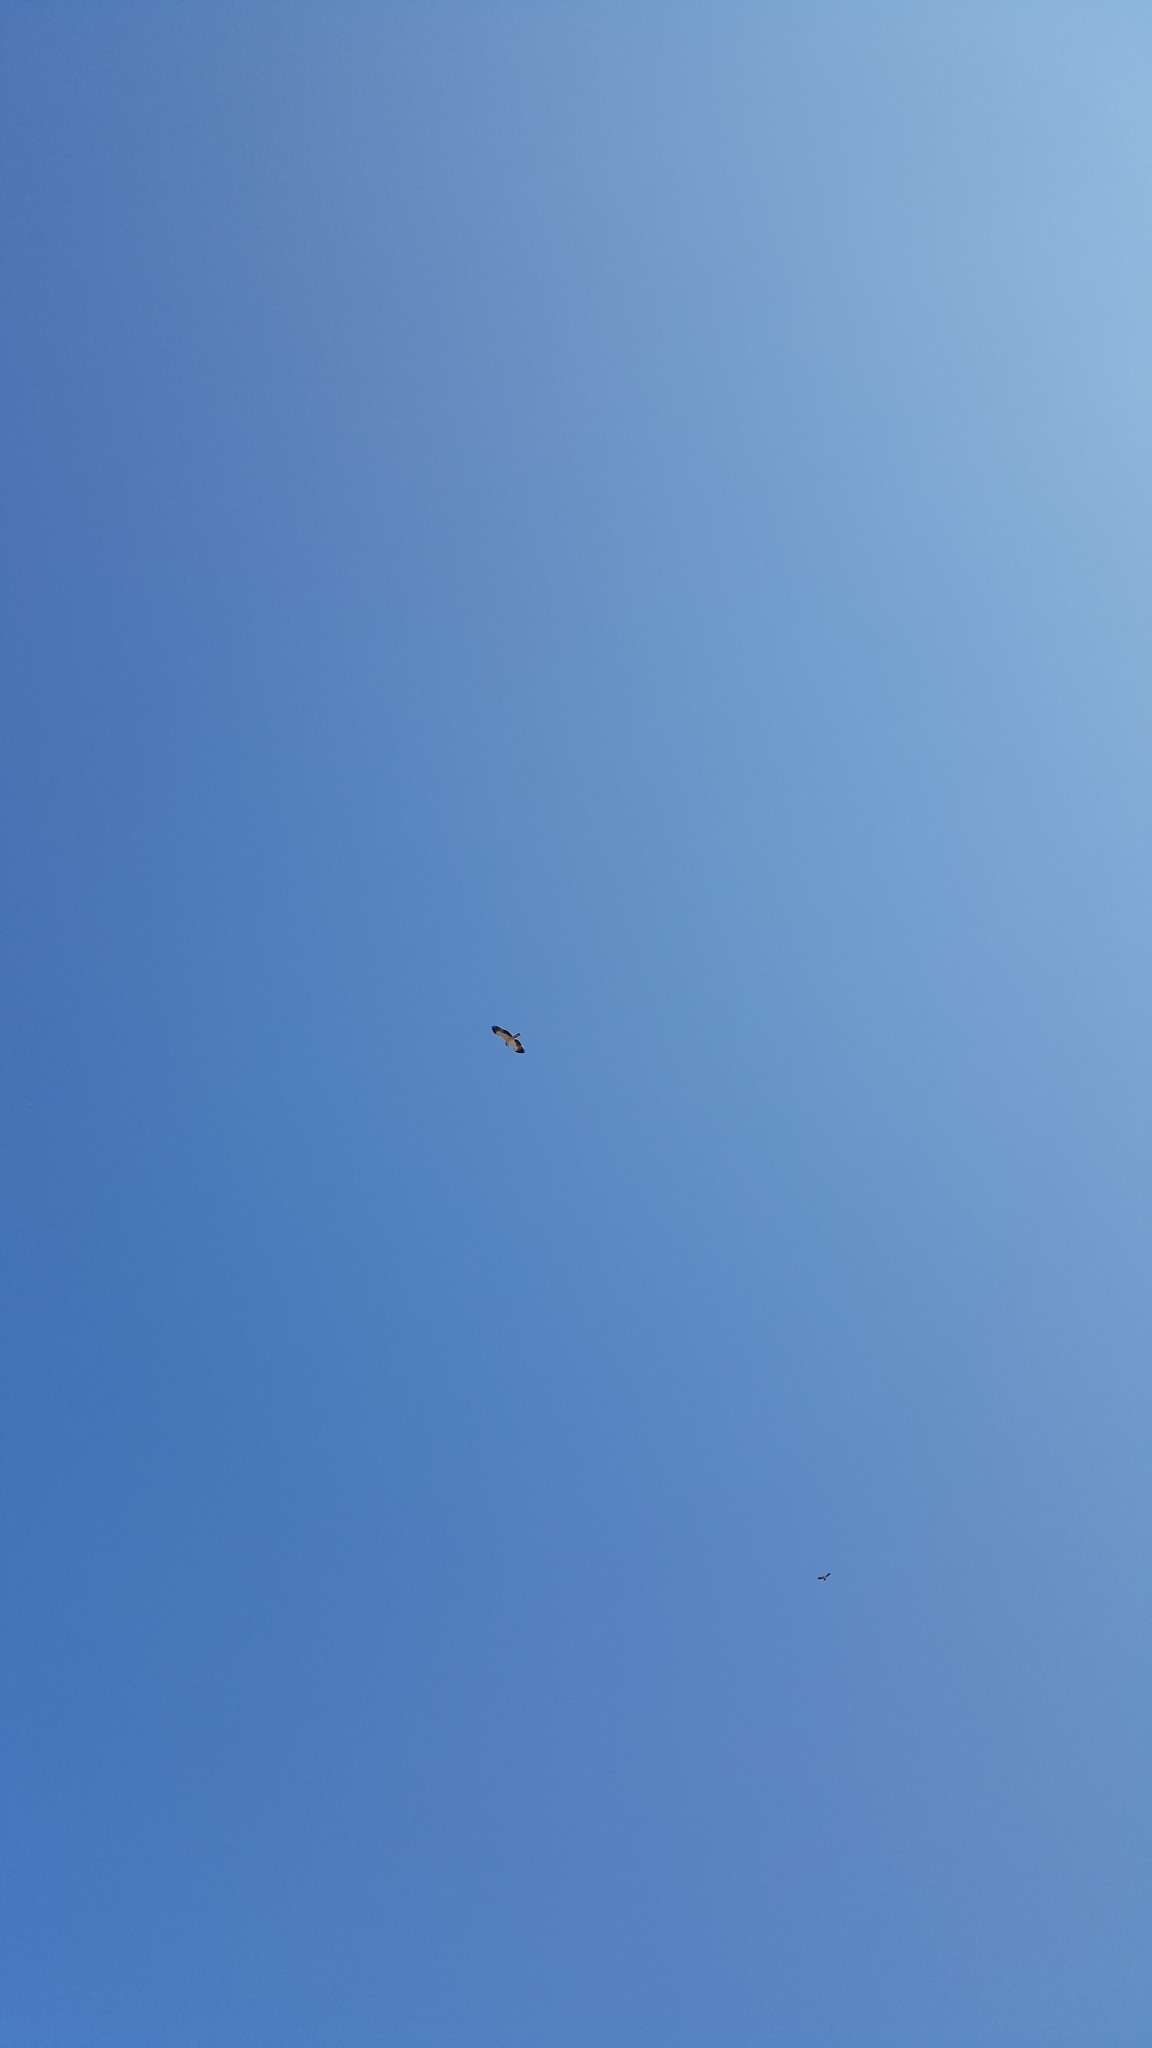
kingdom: Animalia
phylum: Chordata
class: Aves
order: Accipitriformes
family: Accipitridae
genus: Hieraaetus
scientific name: Hieraaetus pennatus
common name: Booted eagle
